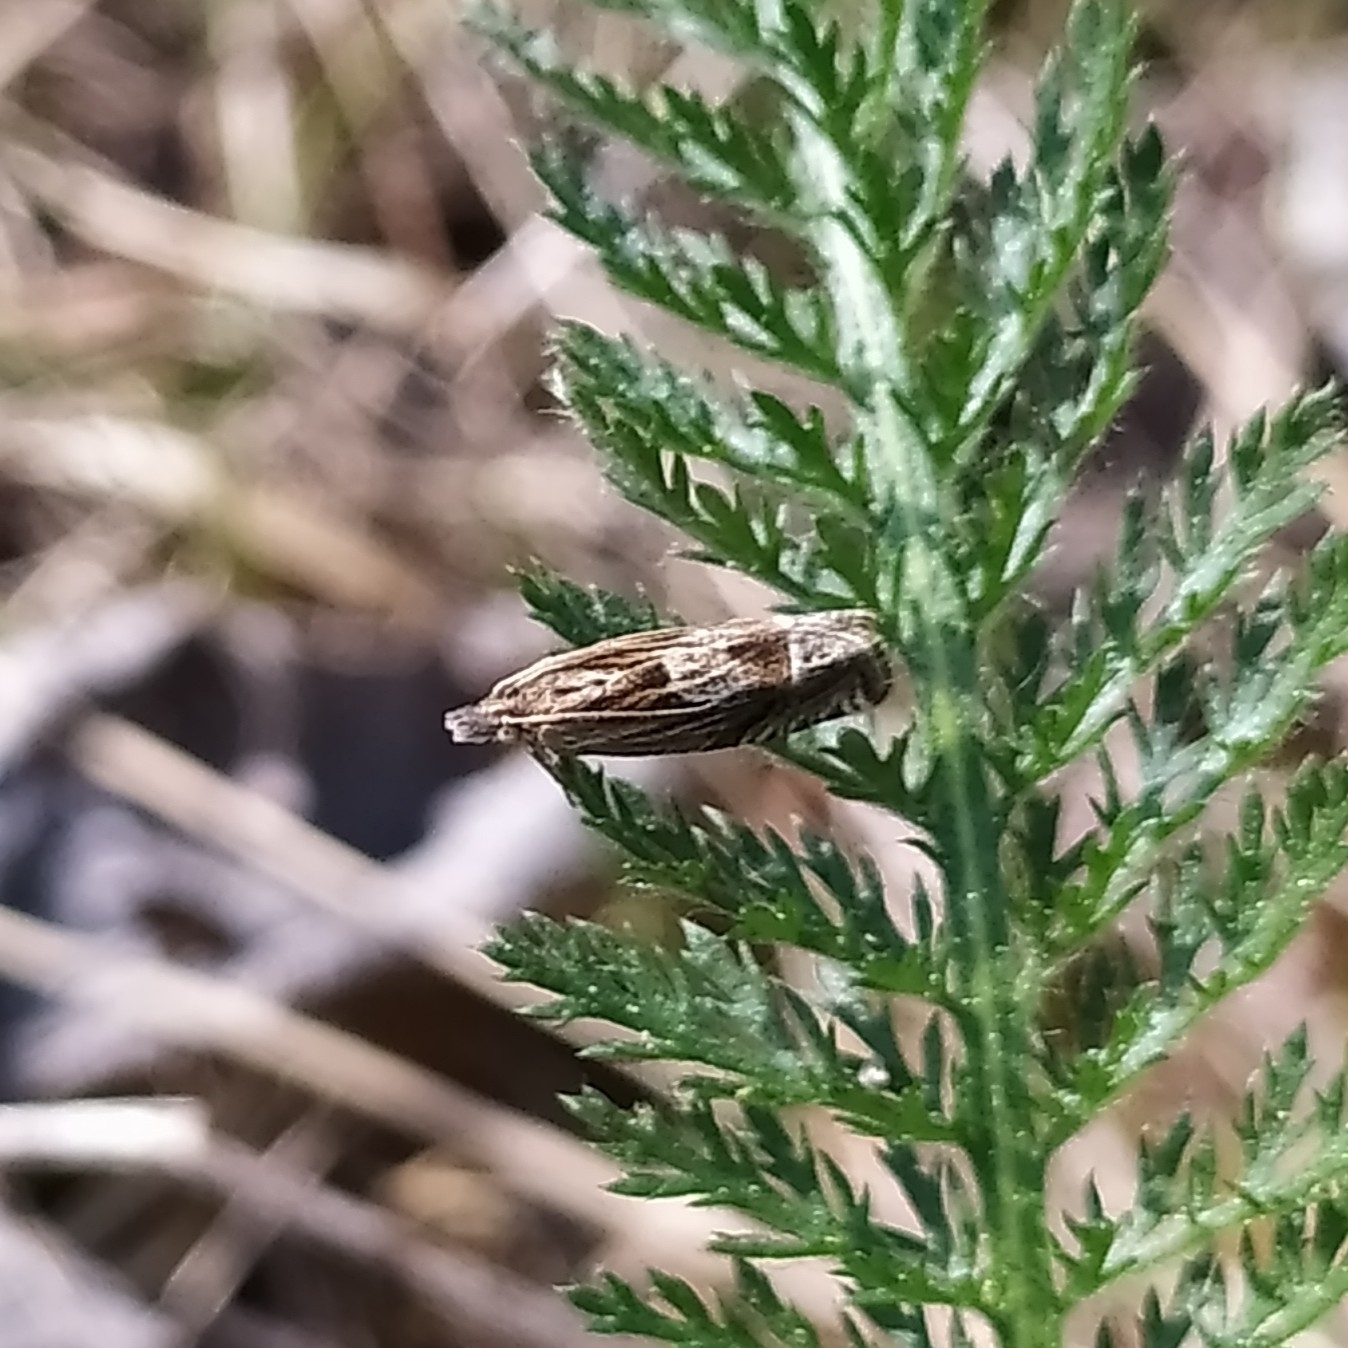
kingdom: Animalia
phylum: Arthropoda
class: Insecta
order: Lepidoptera
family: Tortricidae
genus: Eucosma
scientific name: Eucosma aspidiscana
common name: Golden-rod bell
